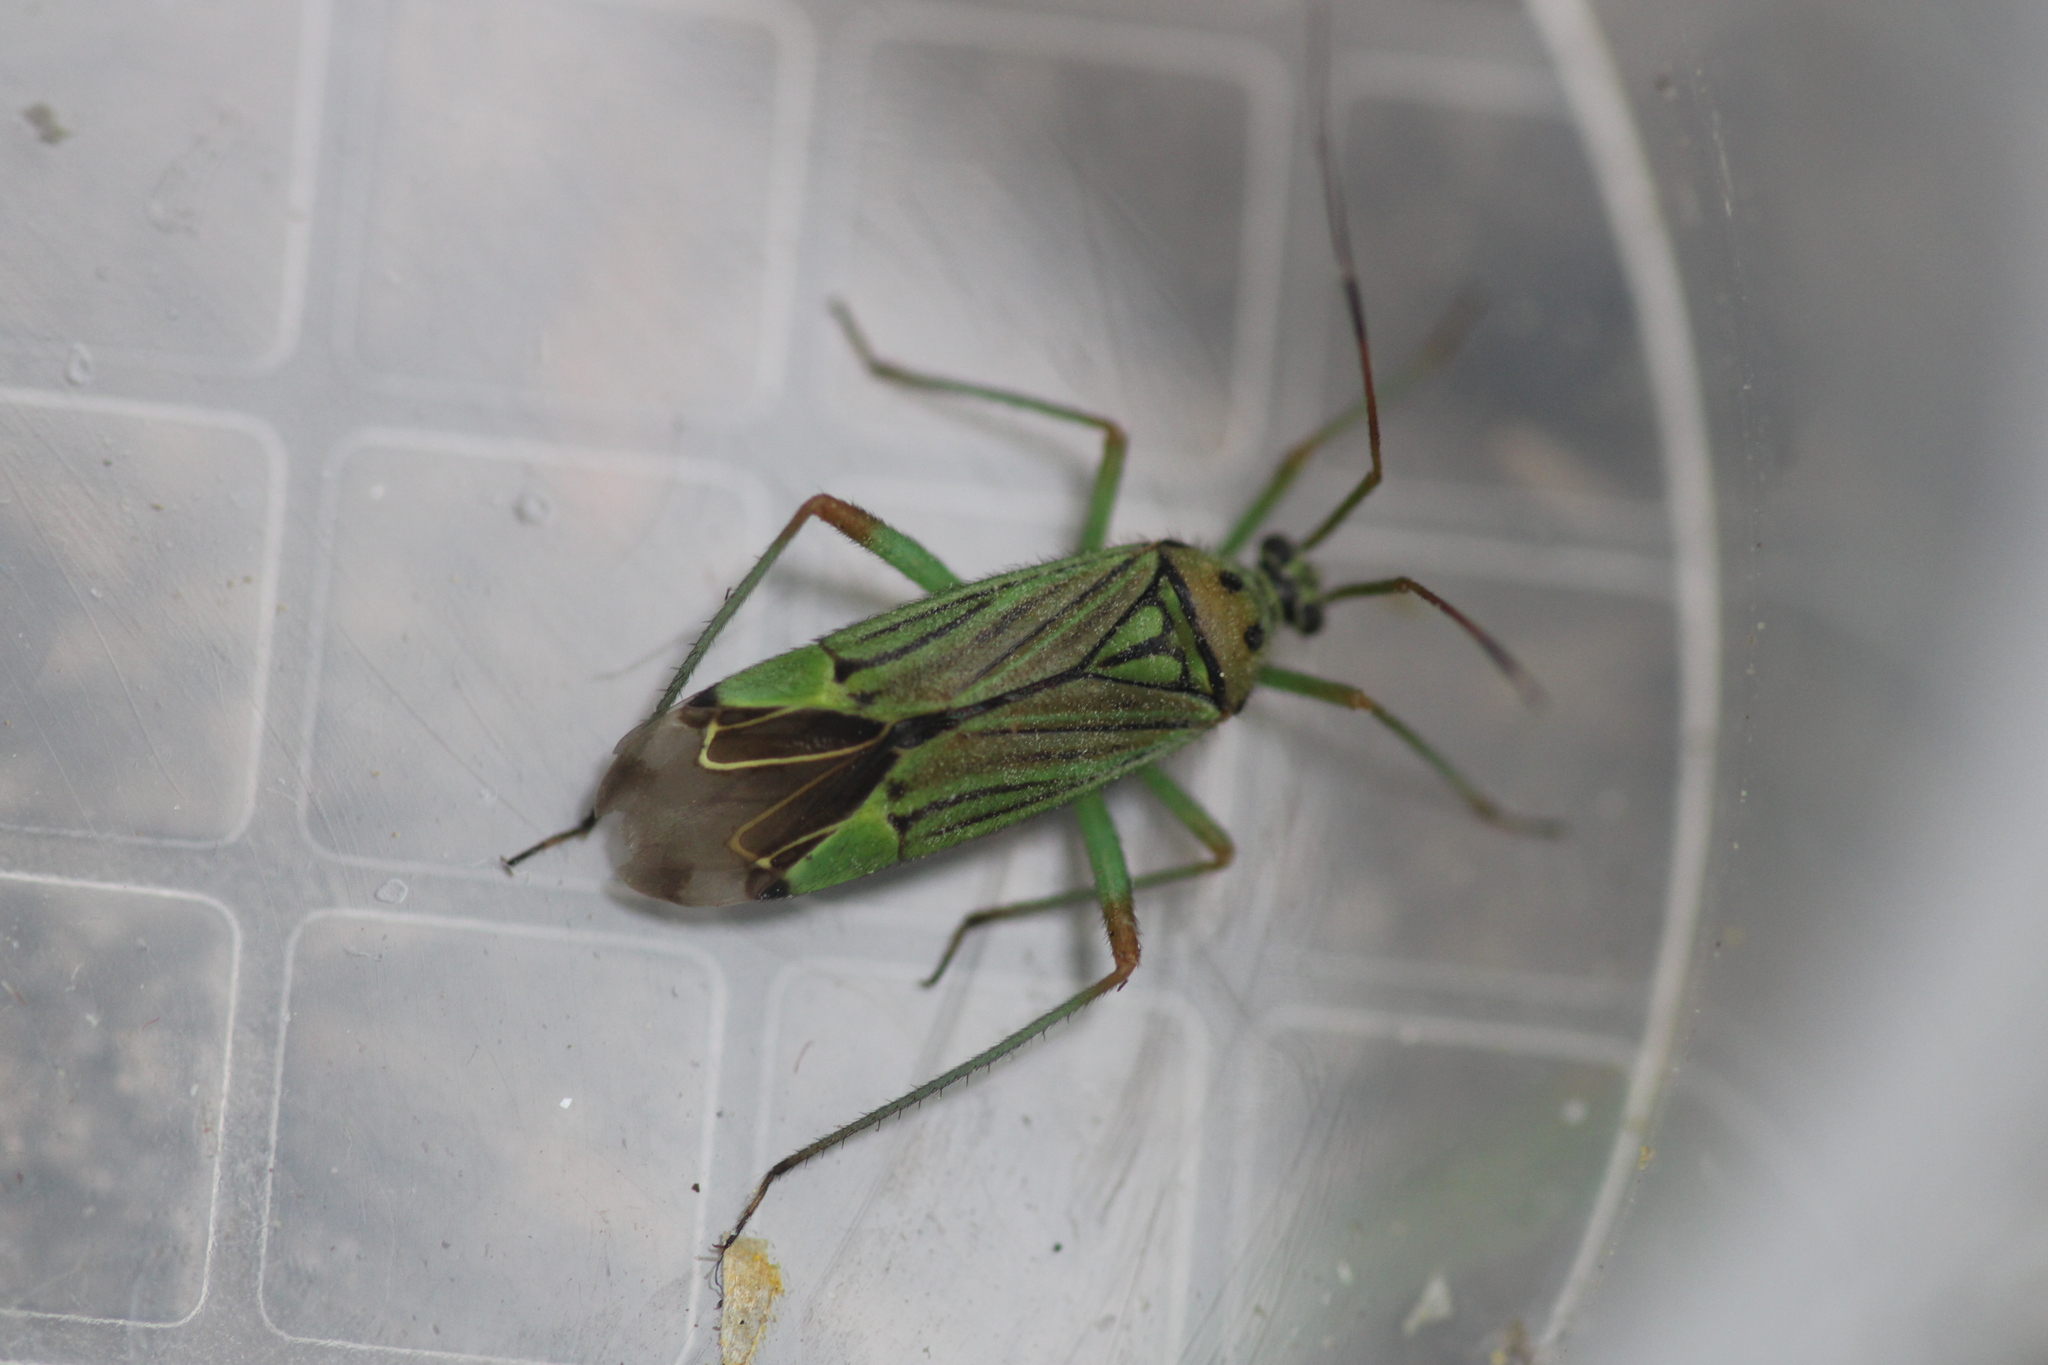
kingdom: Animalia
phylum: Arthropoda
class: Insecta
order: Hemiptera
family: Miridae
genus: Mermitelocerus
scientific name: Mermitelocerus schmidtii
